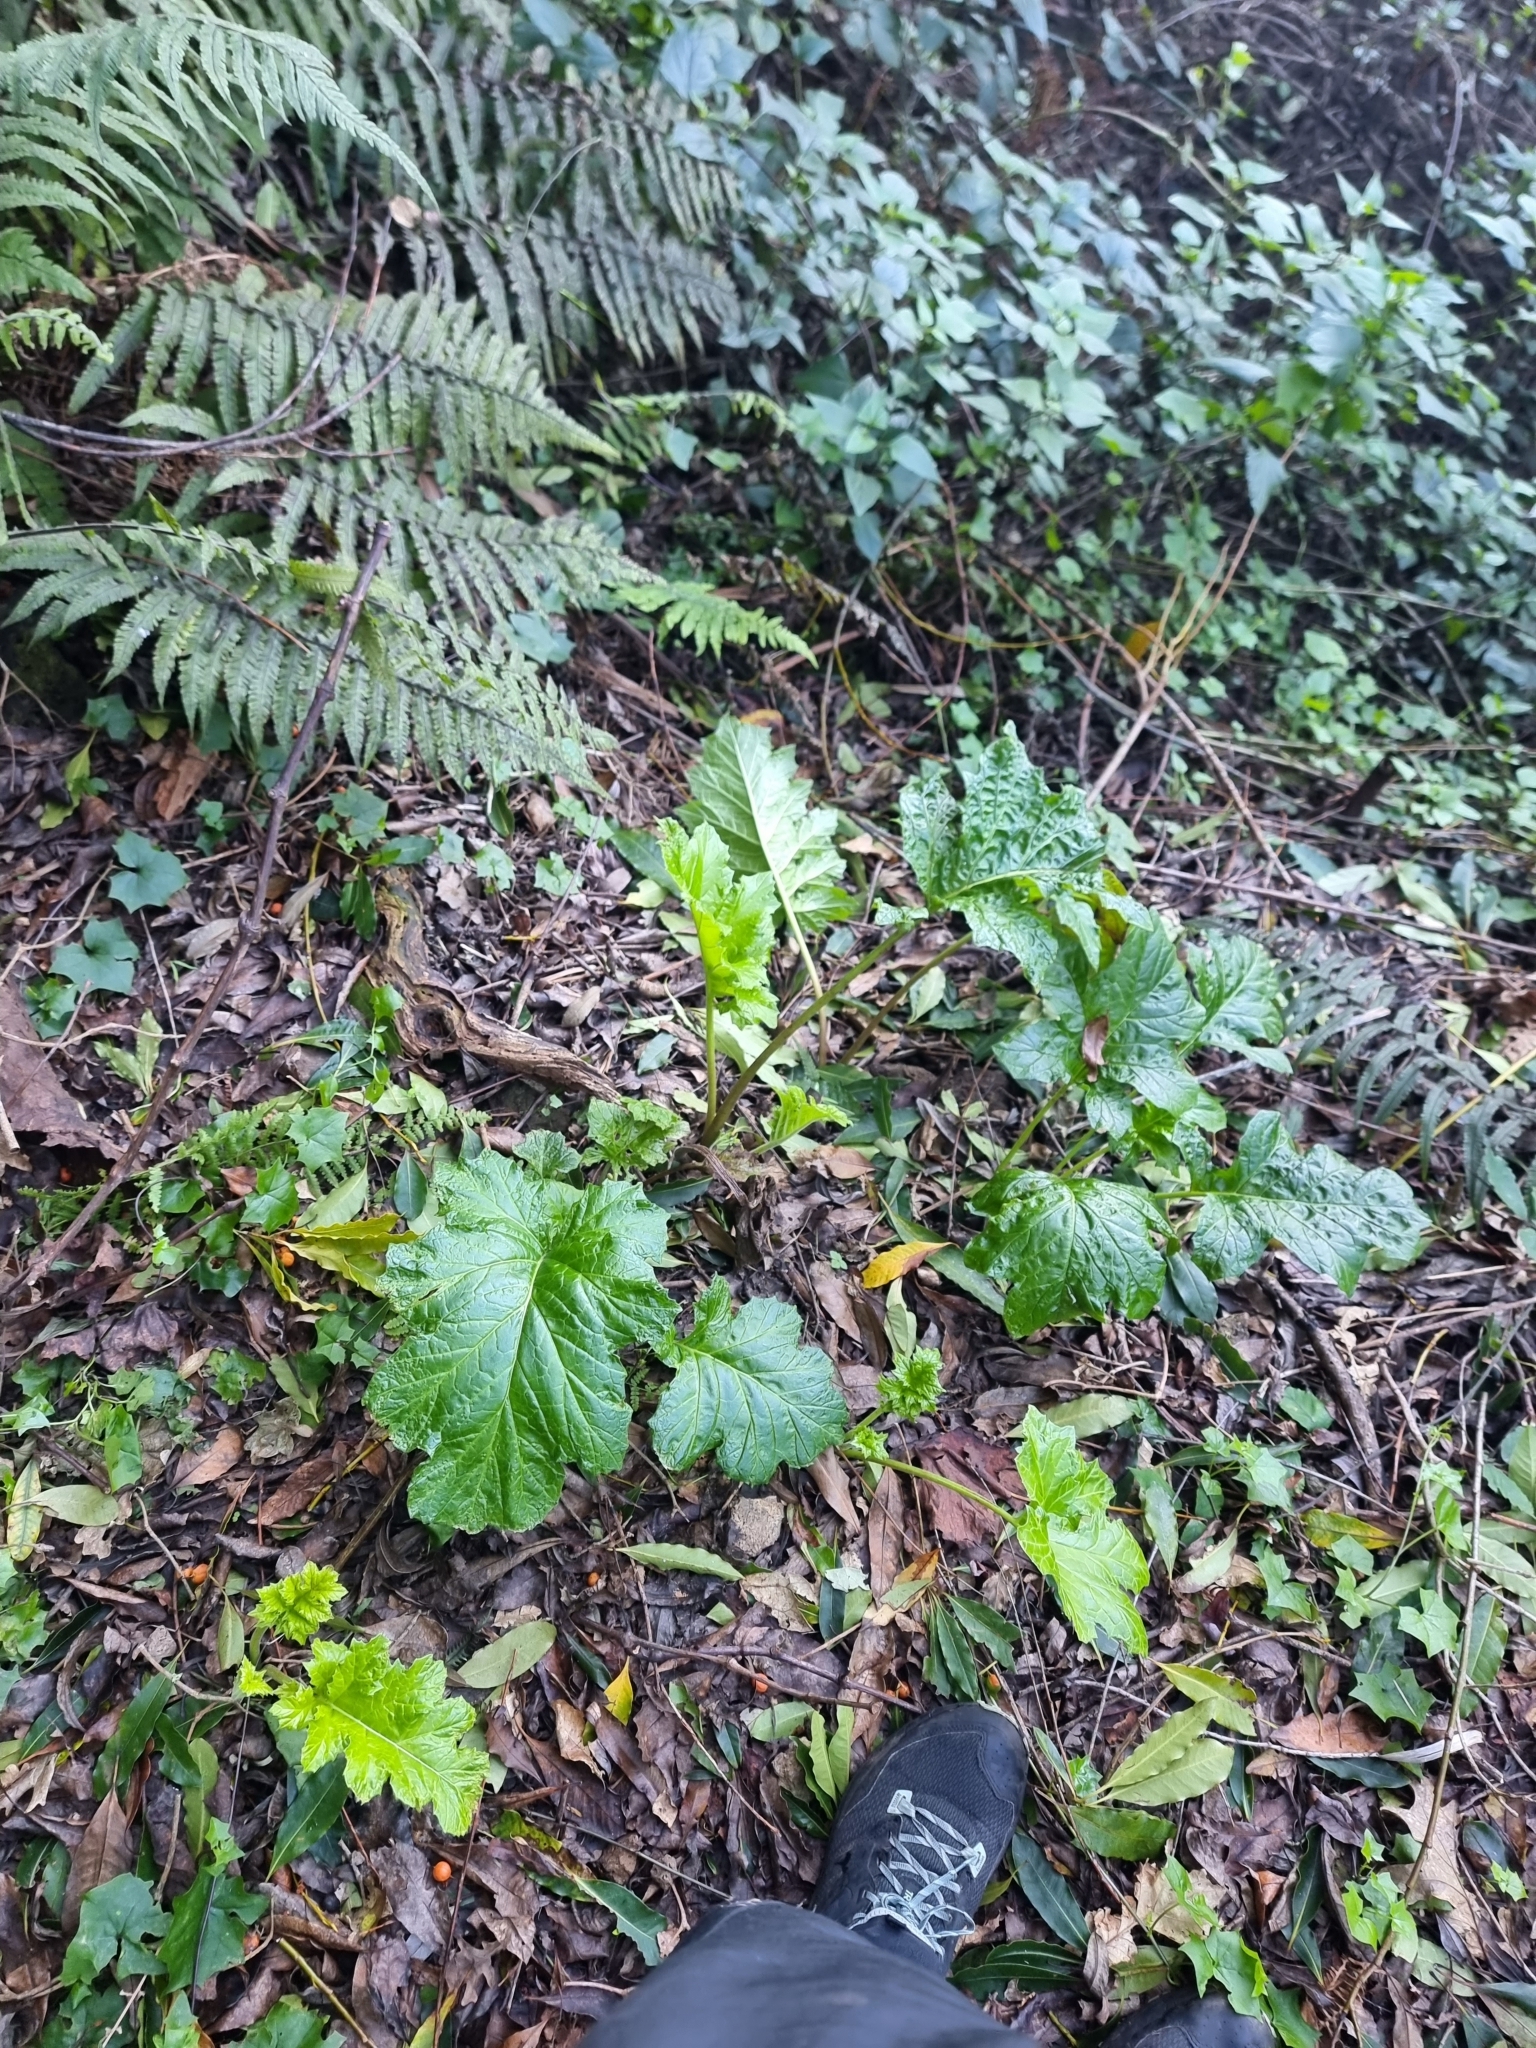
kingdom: Plantae
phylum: Tracheophyta
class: Magnoliopsida
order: Lamiales
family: Acanthaceae
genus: Acanthus
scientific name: Acanthus mollis
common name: Bear's-breech
